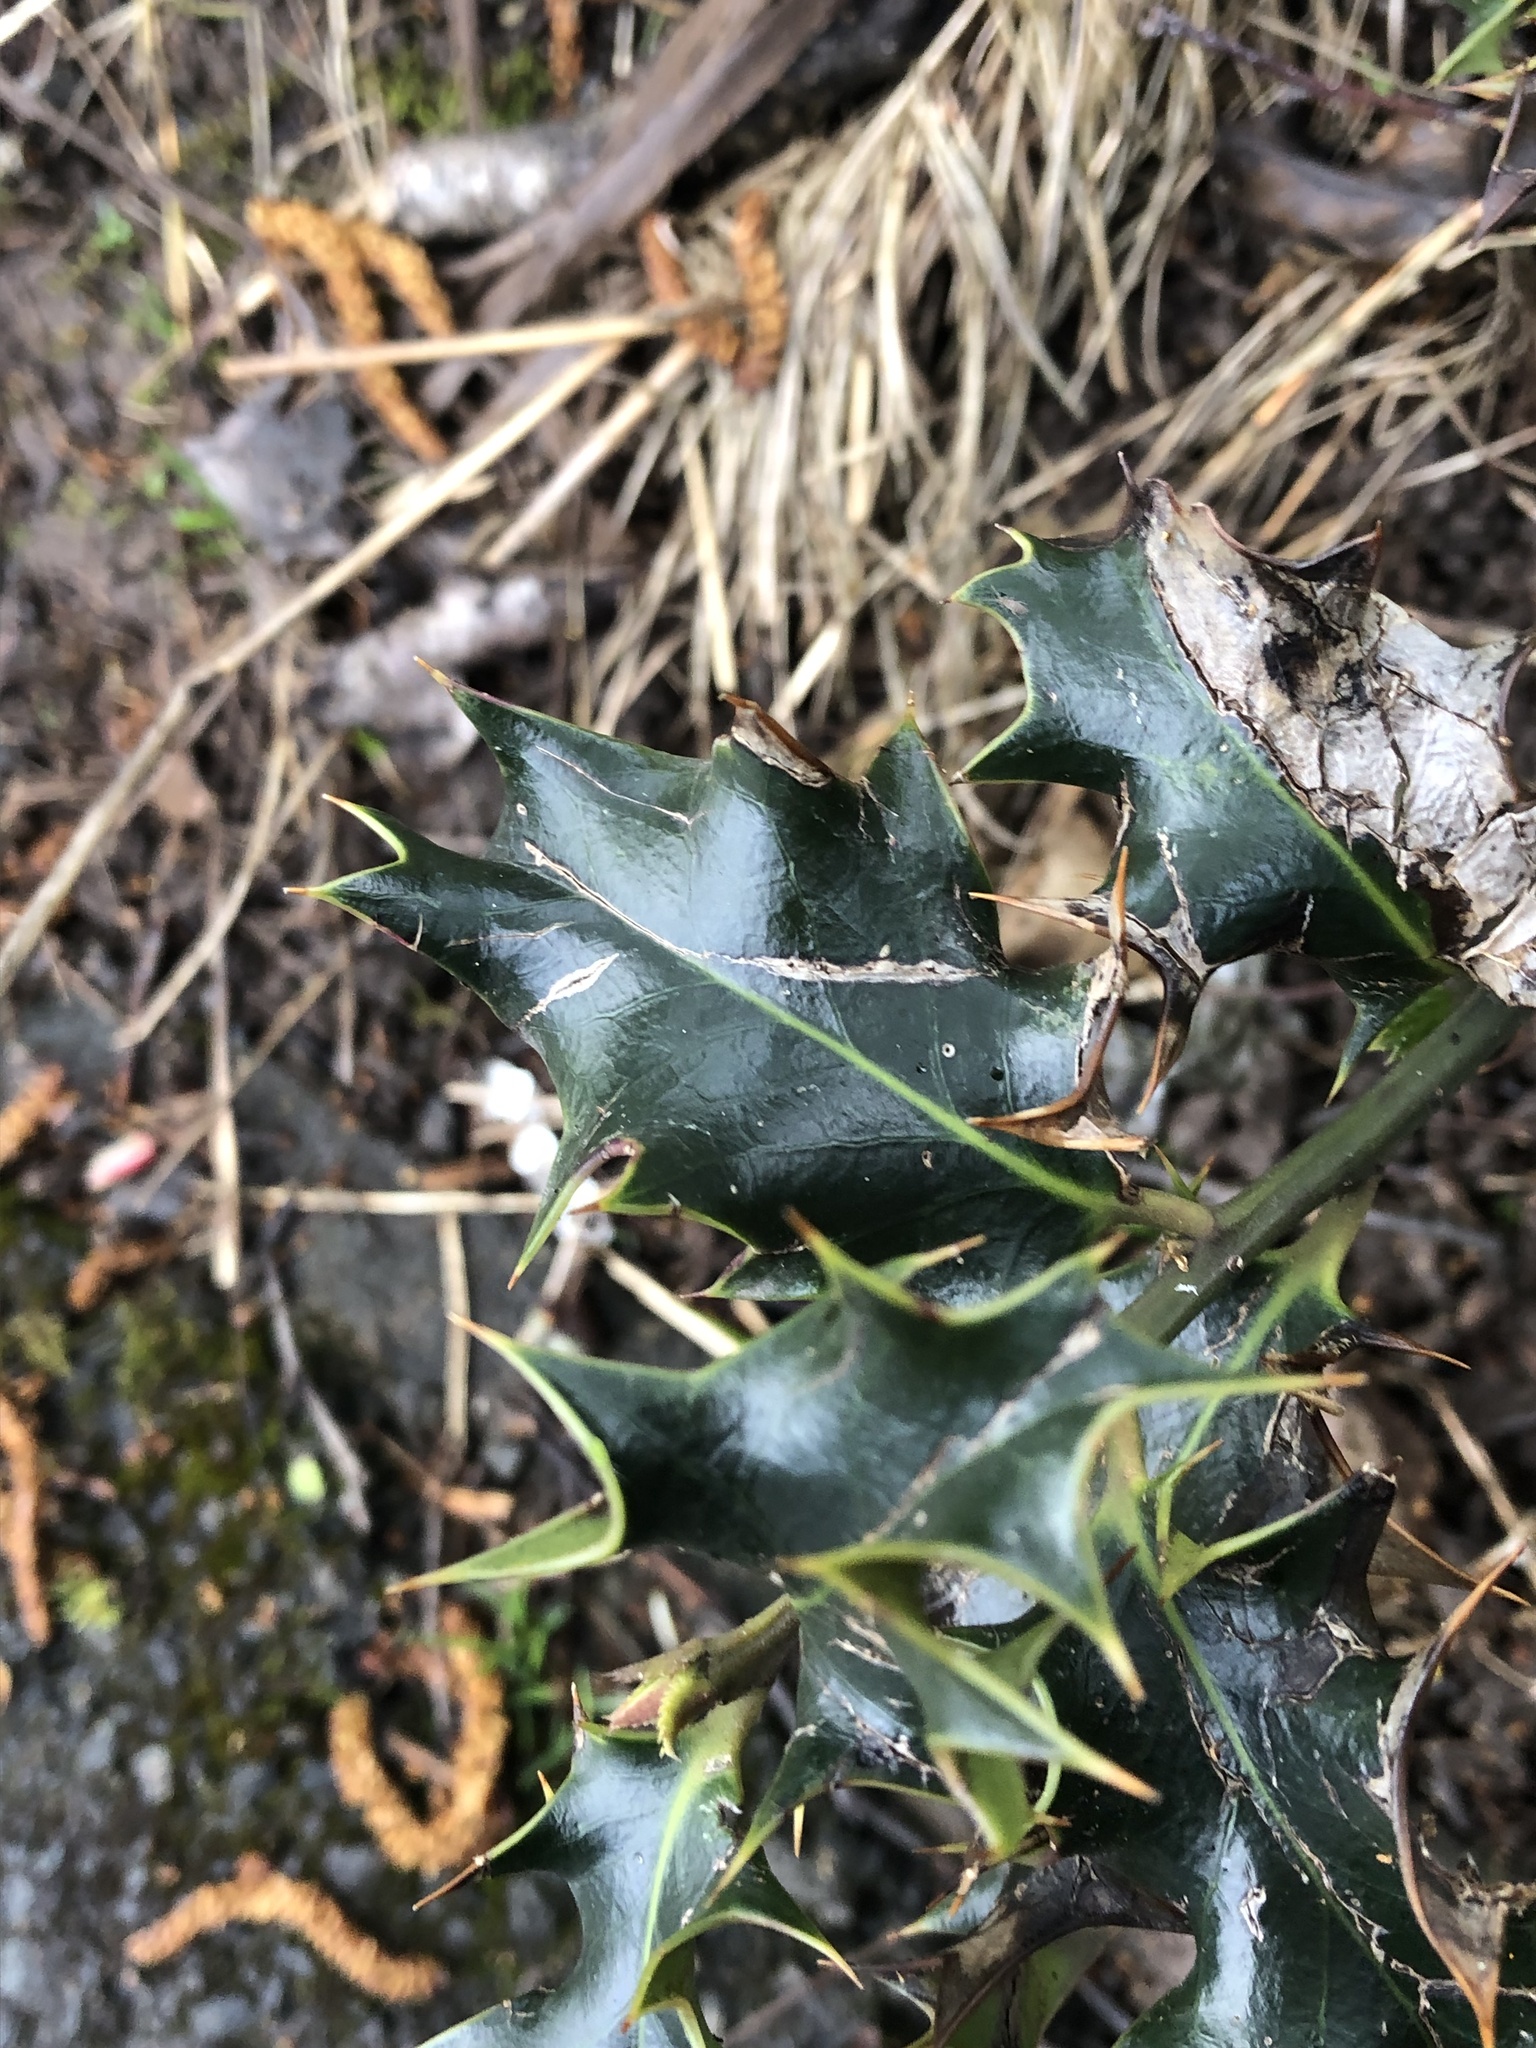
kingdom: Plantae
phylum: Tracheophyta
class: Magnoliopsida
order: Aquifoliales
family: Aquifoliaceae
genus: Ilex
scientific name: Ilex aquifolium
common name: English holly
